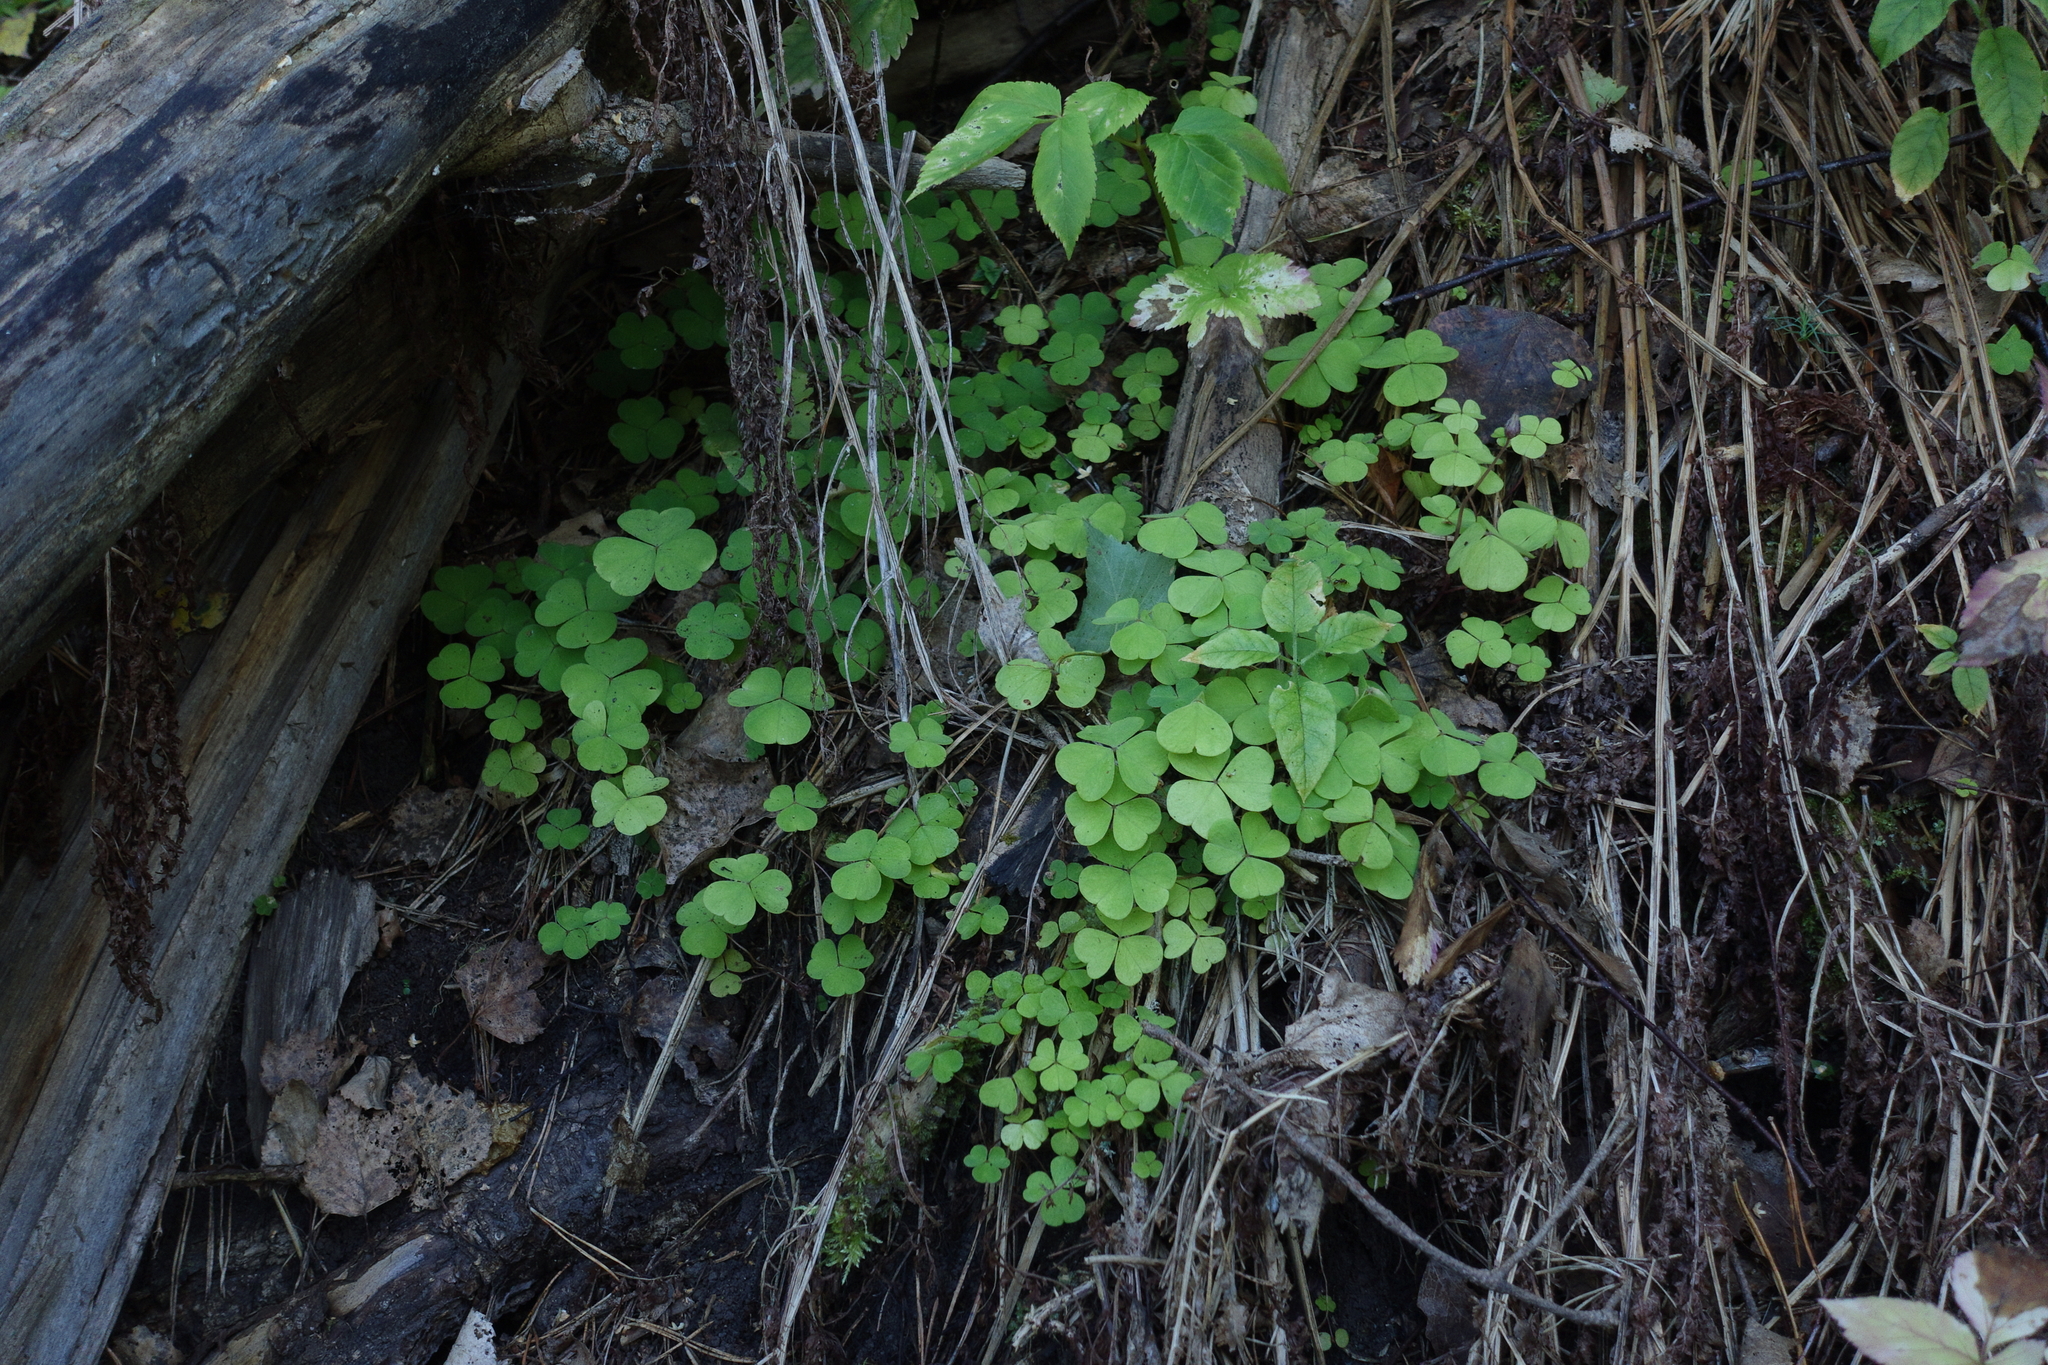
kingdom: Plantae
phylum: Tracheophyta
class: Magnoliopsida
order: Oxalidales
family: Oxalidaceae
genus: Oxalis
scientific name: Oxalis acetosella
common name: Wood-sorrel
